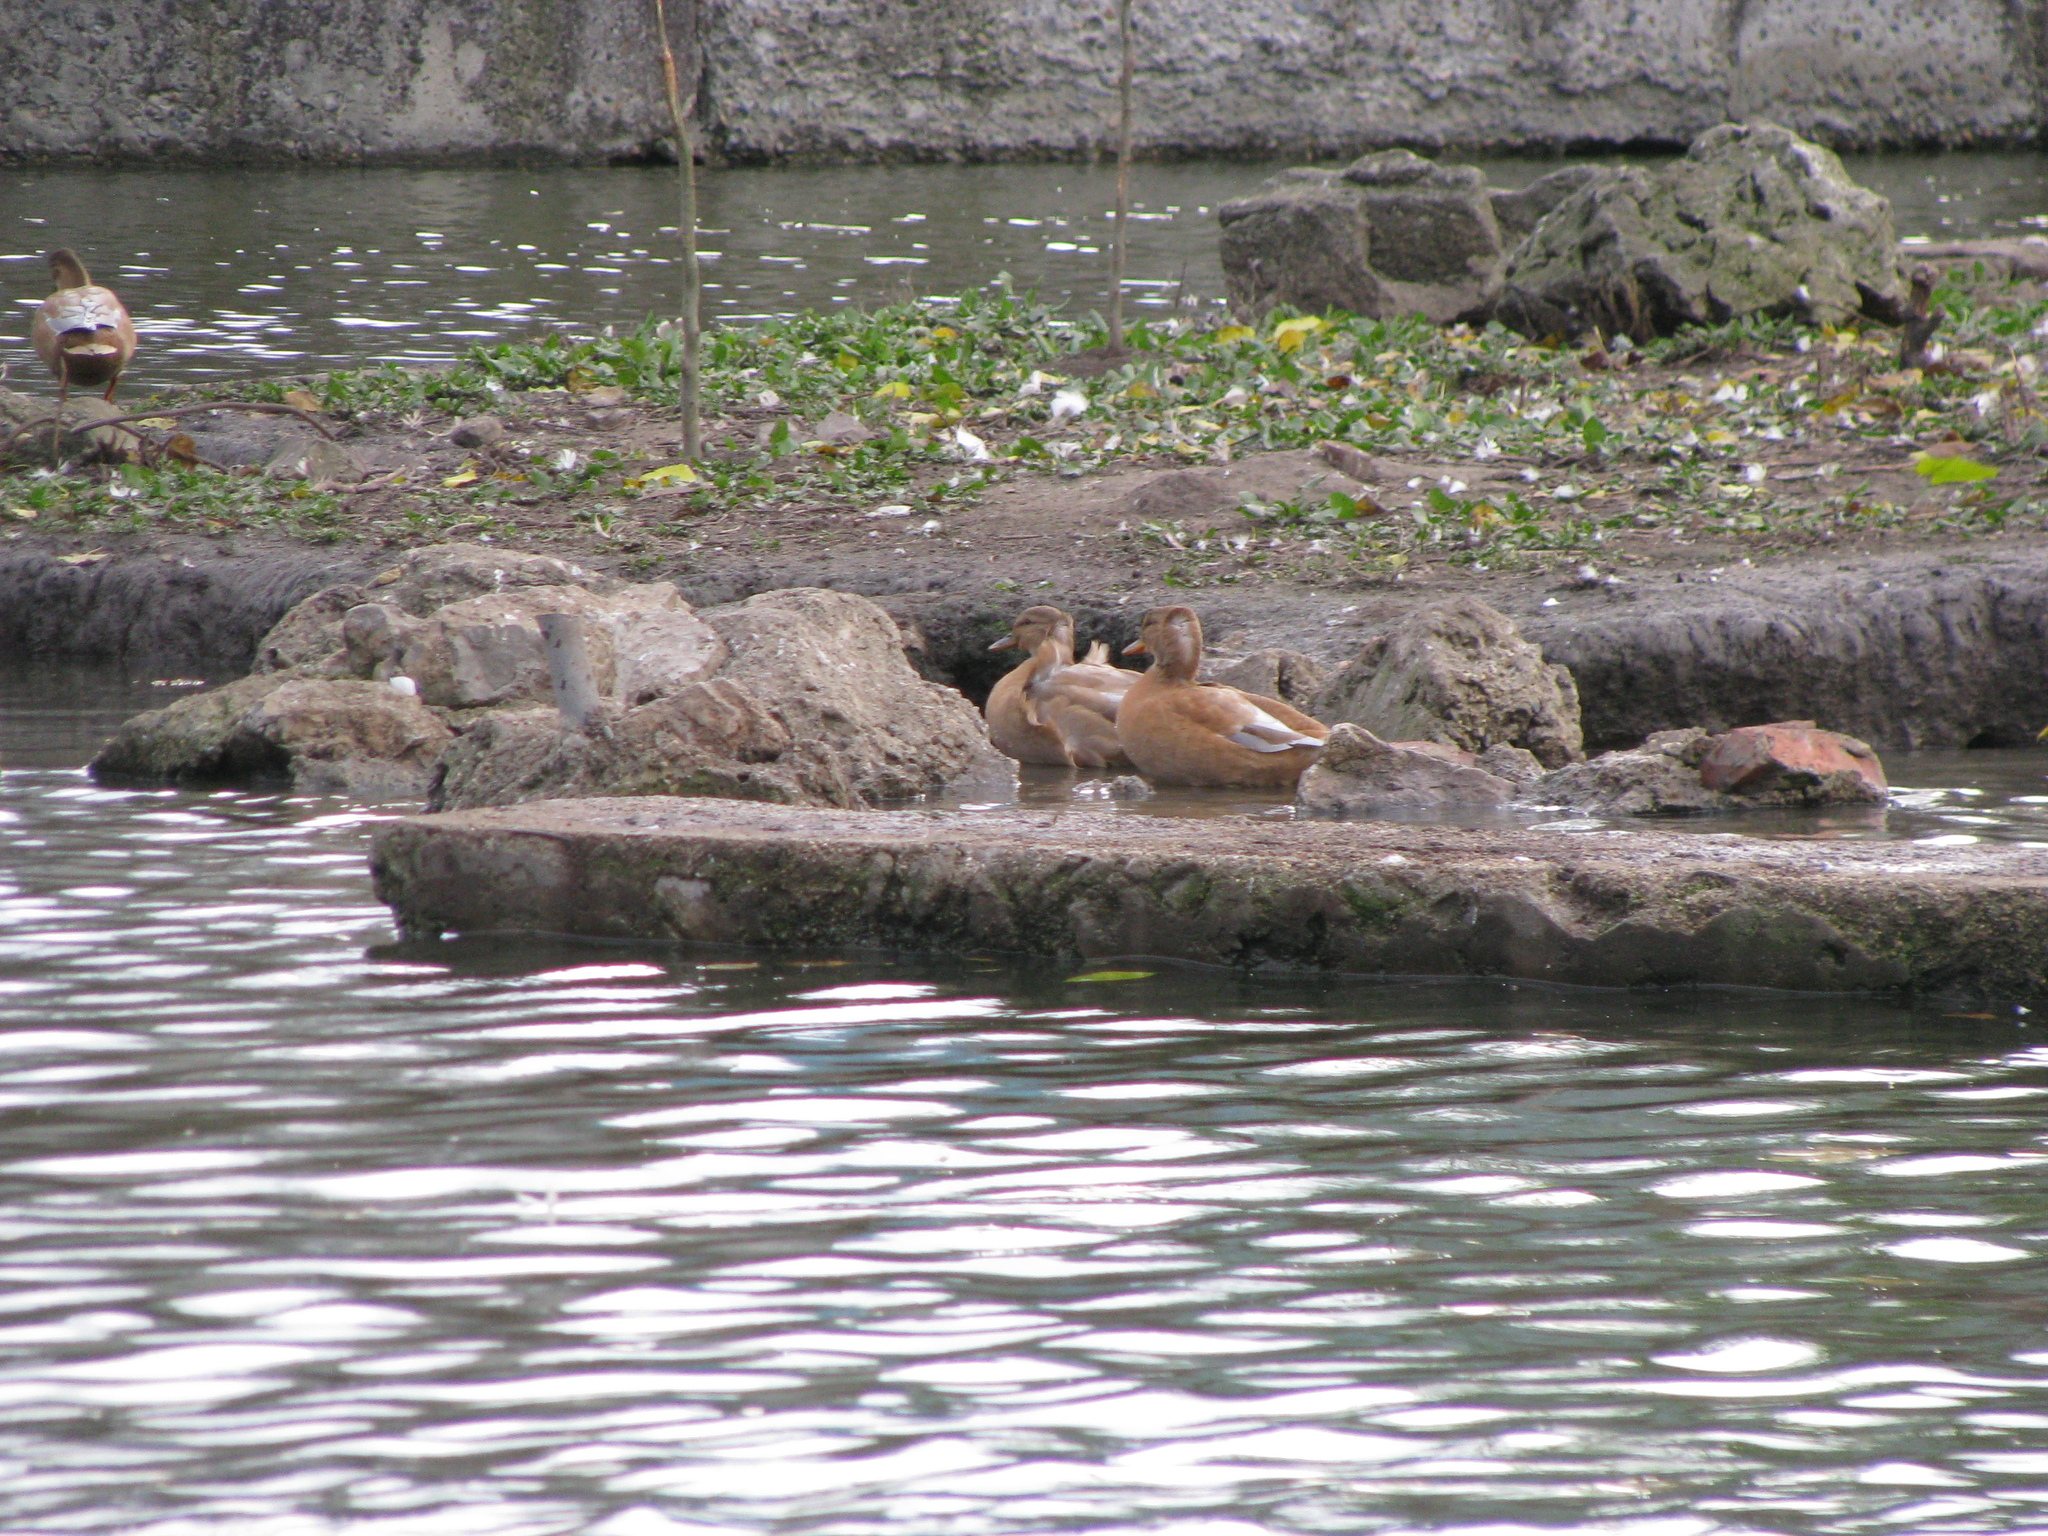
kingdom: Animalia
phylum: Chordata
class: Aves
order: Anseriformes
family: Anatidae
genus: Anas
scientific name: Anas platyrhynchos
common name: Mallard
